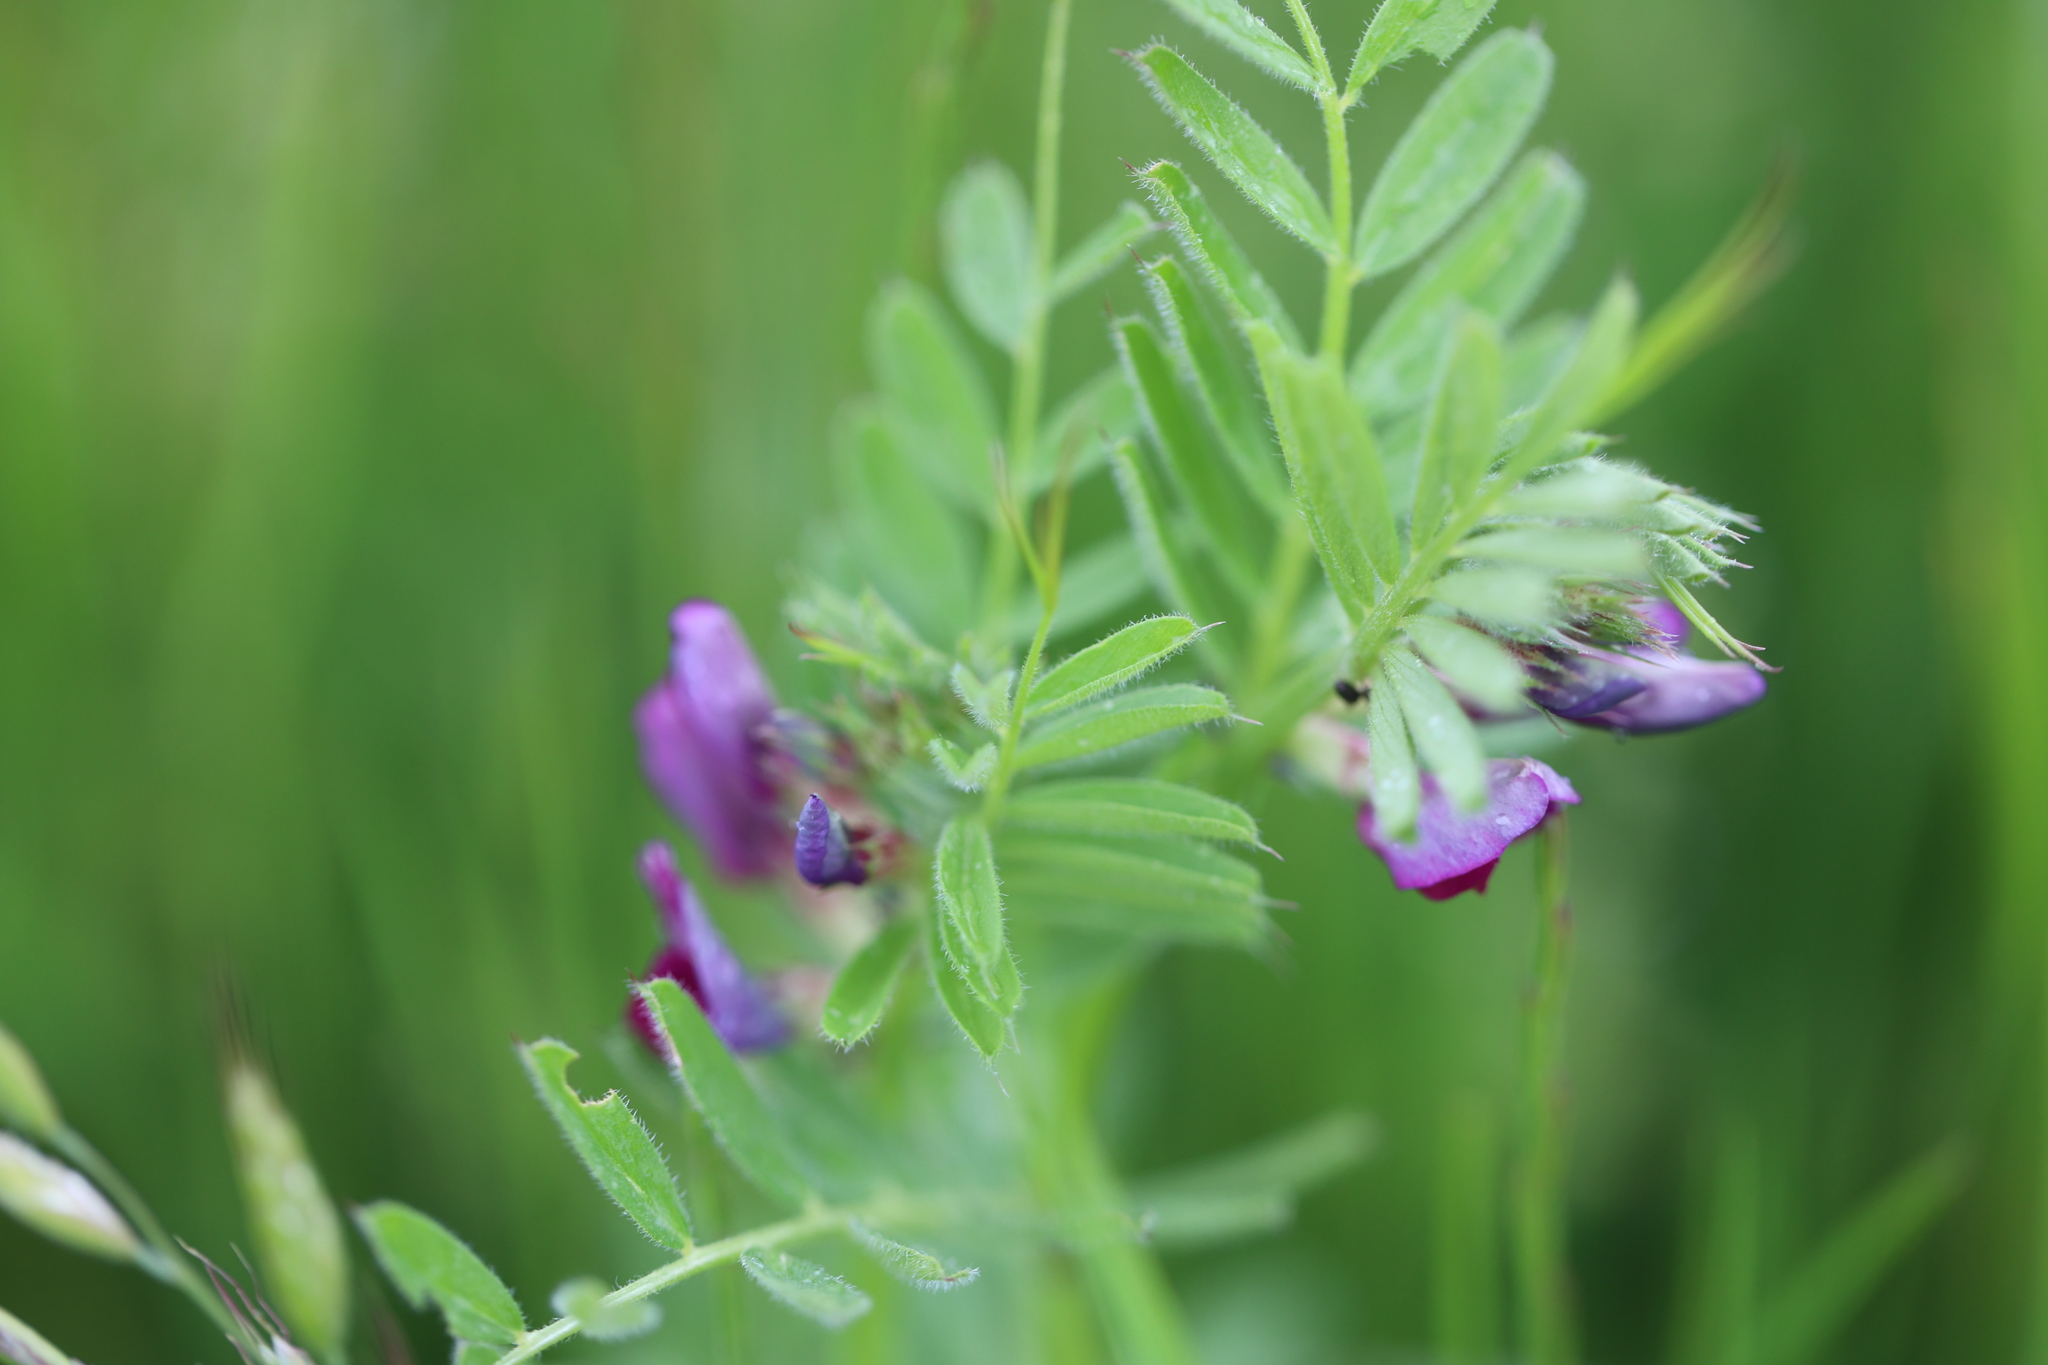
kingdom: Plantae
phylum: Tracheophyta
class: Magnoliopsida
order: Fabales
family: Fabaceae
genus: Vicia
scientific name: Vicia sativa
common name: Garden vetch
